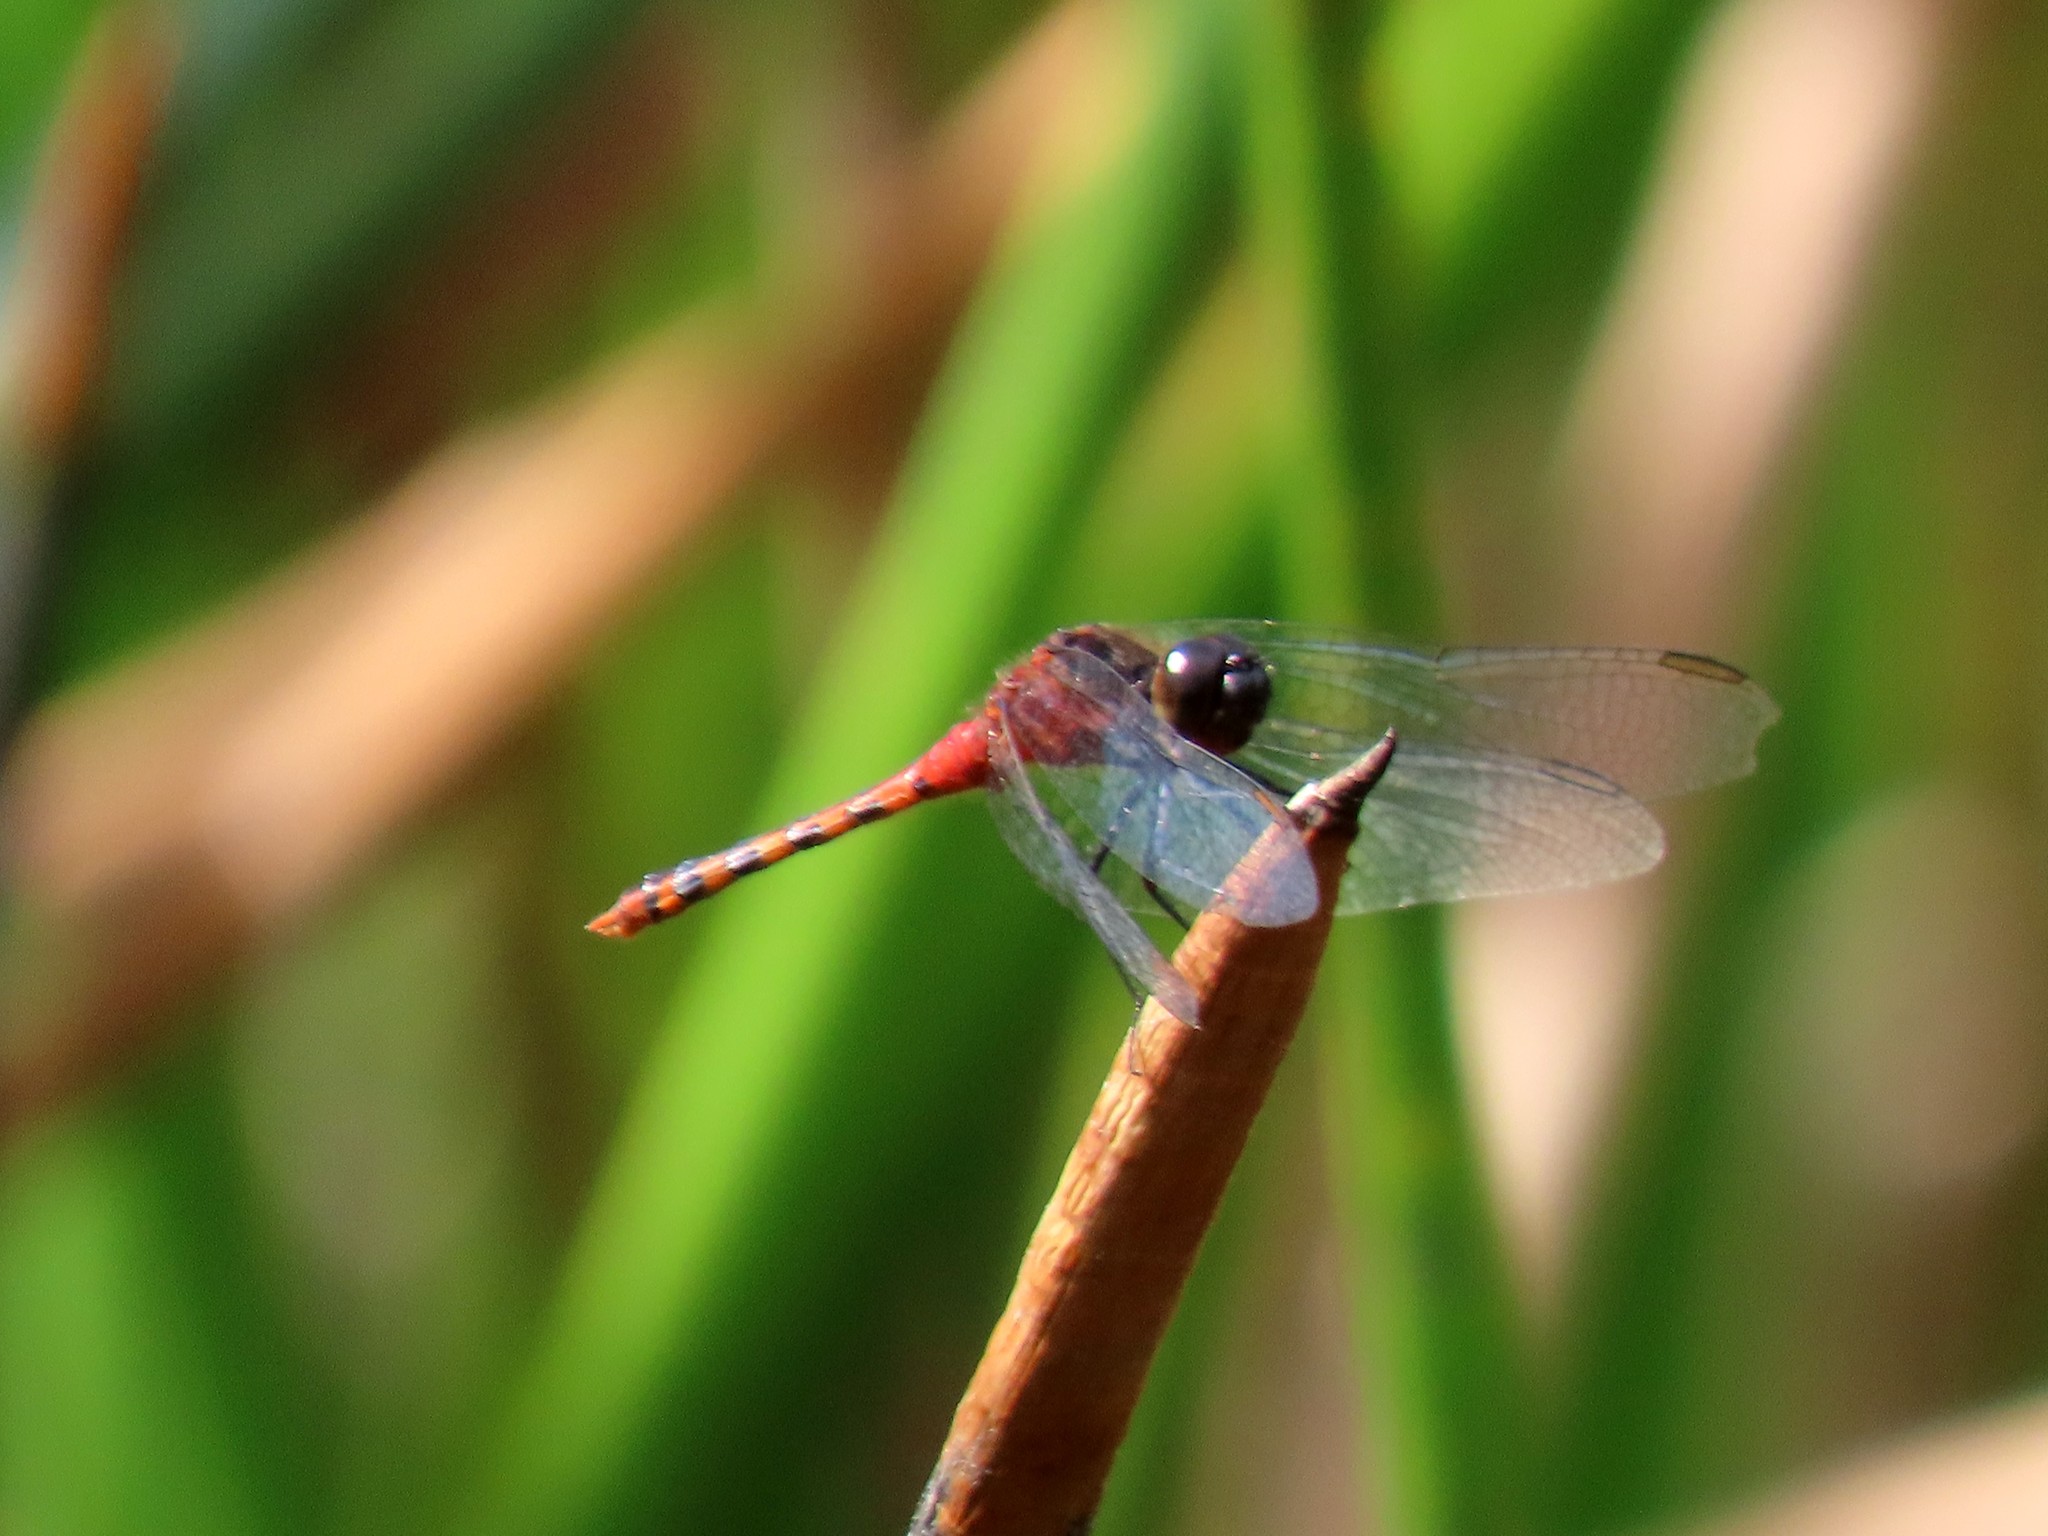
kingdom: Animalia
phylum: Arthropoda
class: Insecta
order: Odonata
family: Libellulidae
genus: Diplacodes
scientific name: Diplacodes melanopsis
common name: Black-faced percher
